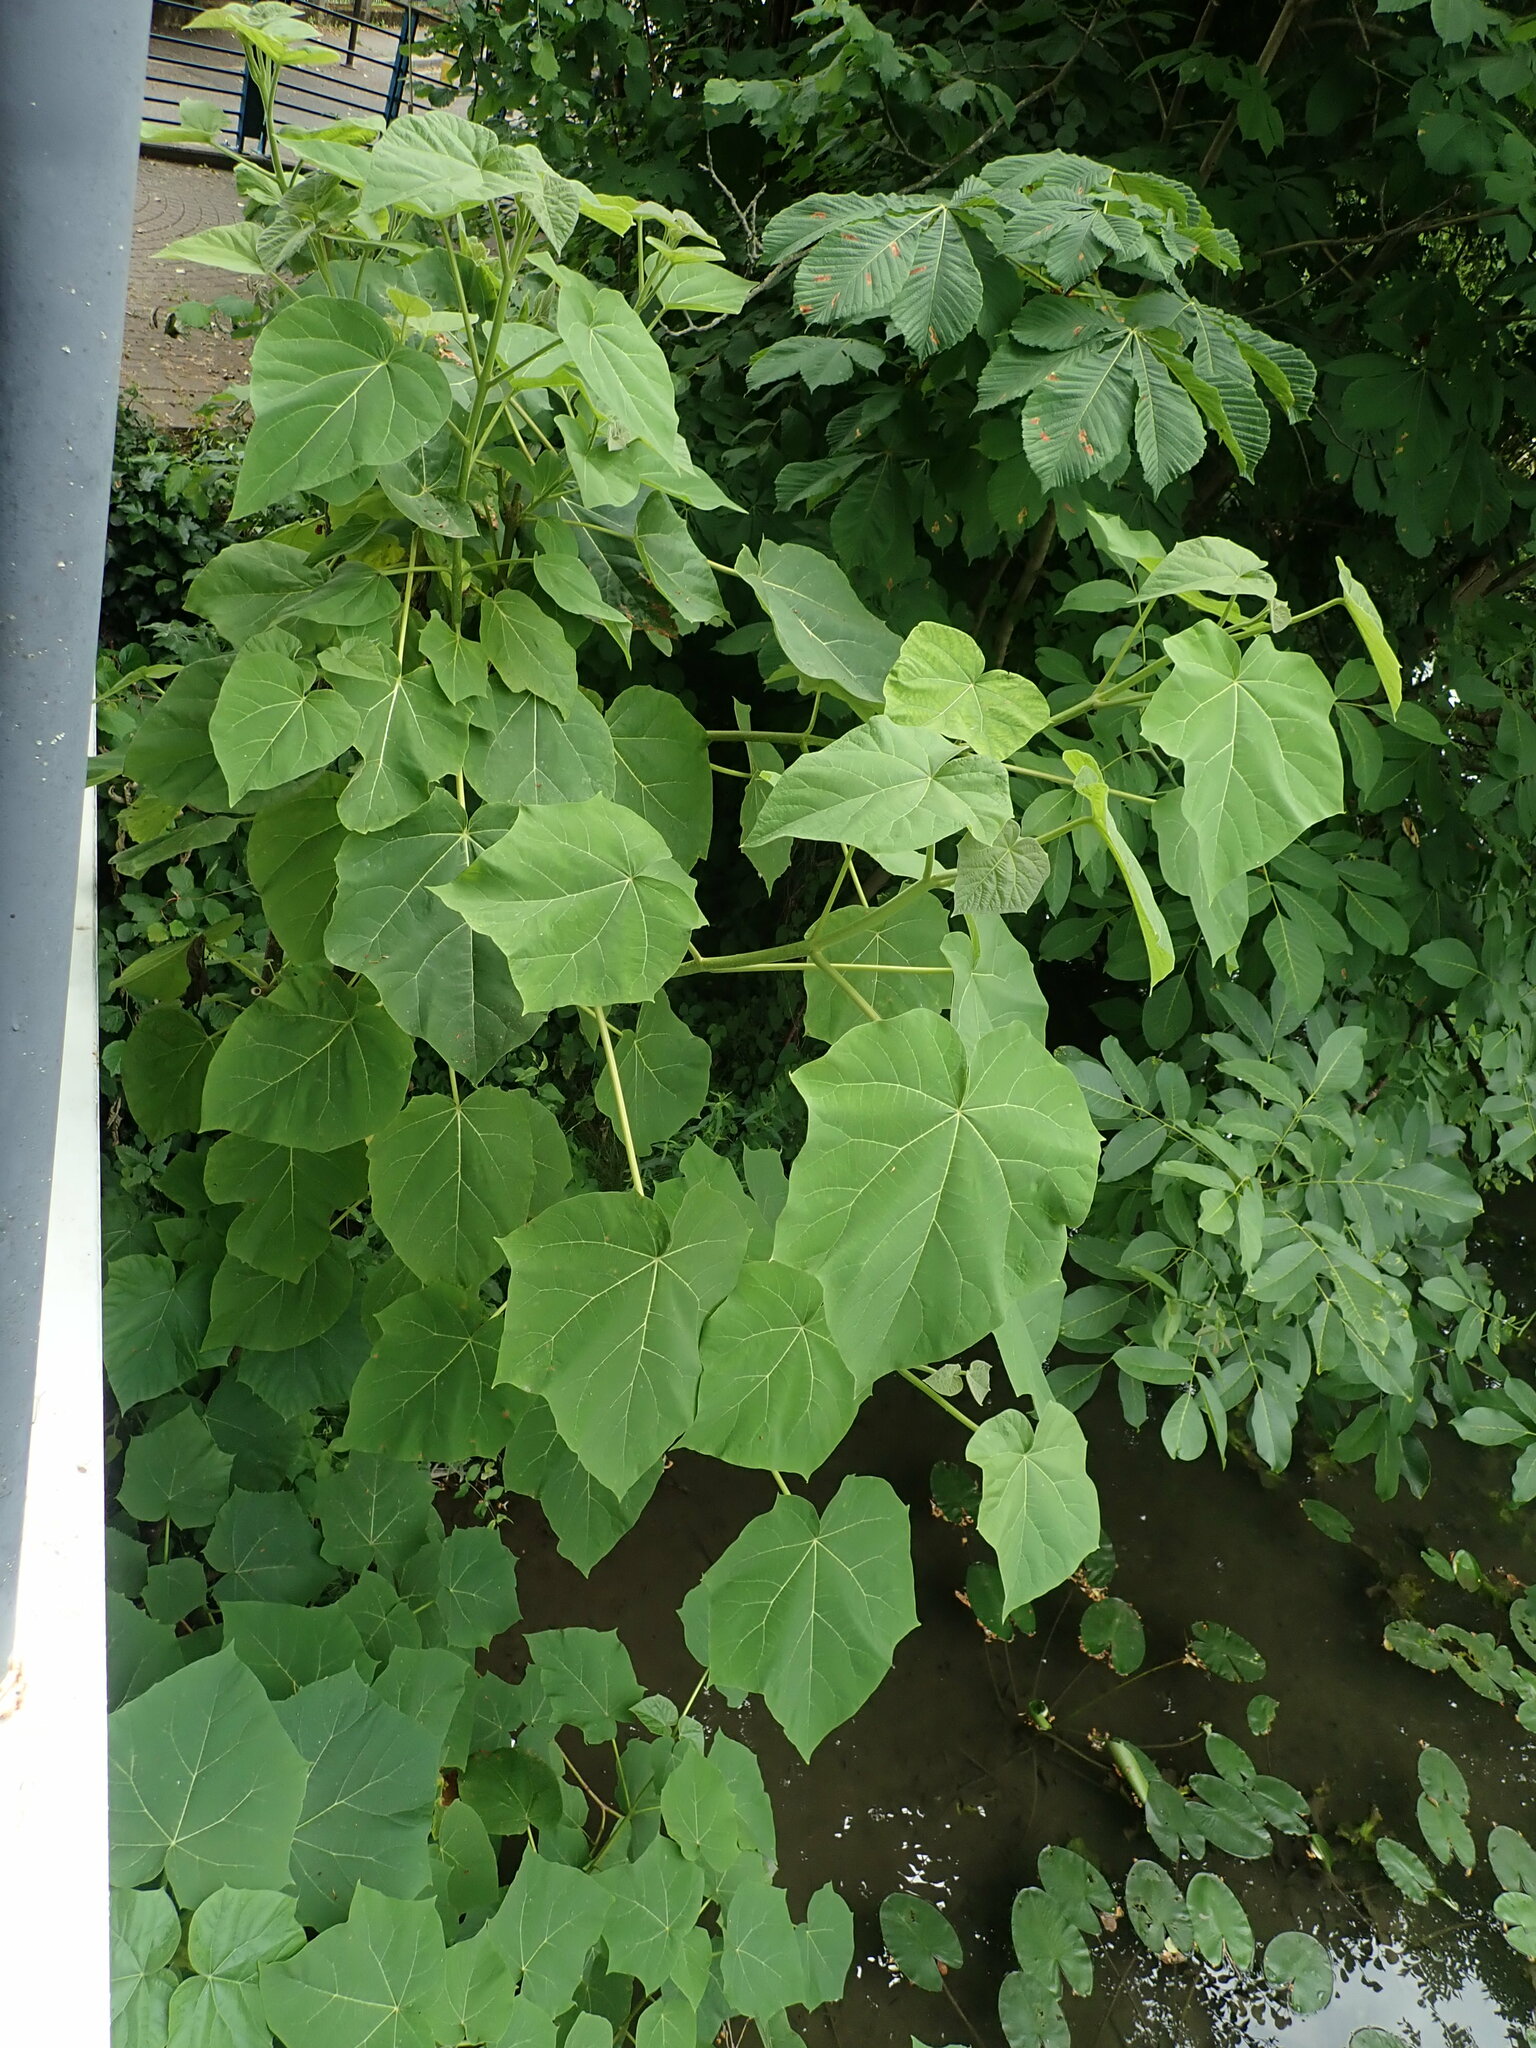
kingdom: Plantae
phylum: Tracheophyta
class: Magnoliopsida
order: Lamiales
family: Paulowniaceae
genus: Paulownia
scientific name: Paulownia tomentosa
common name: Foxglove-tree
